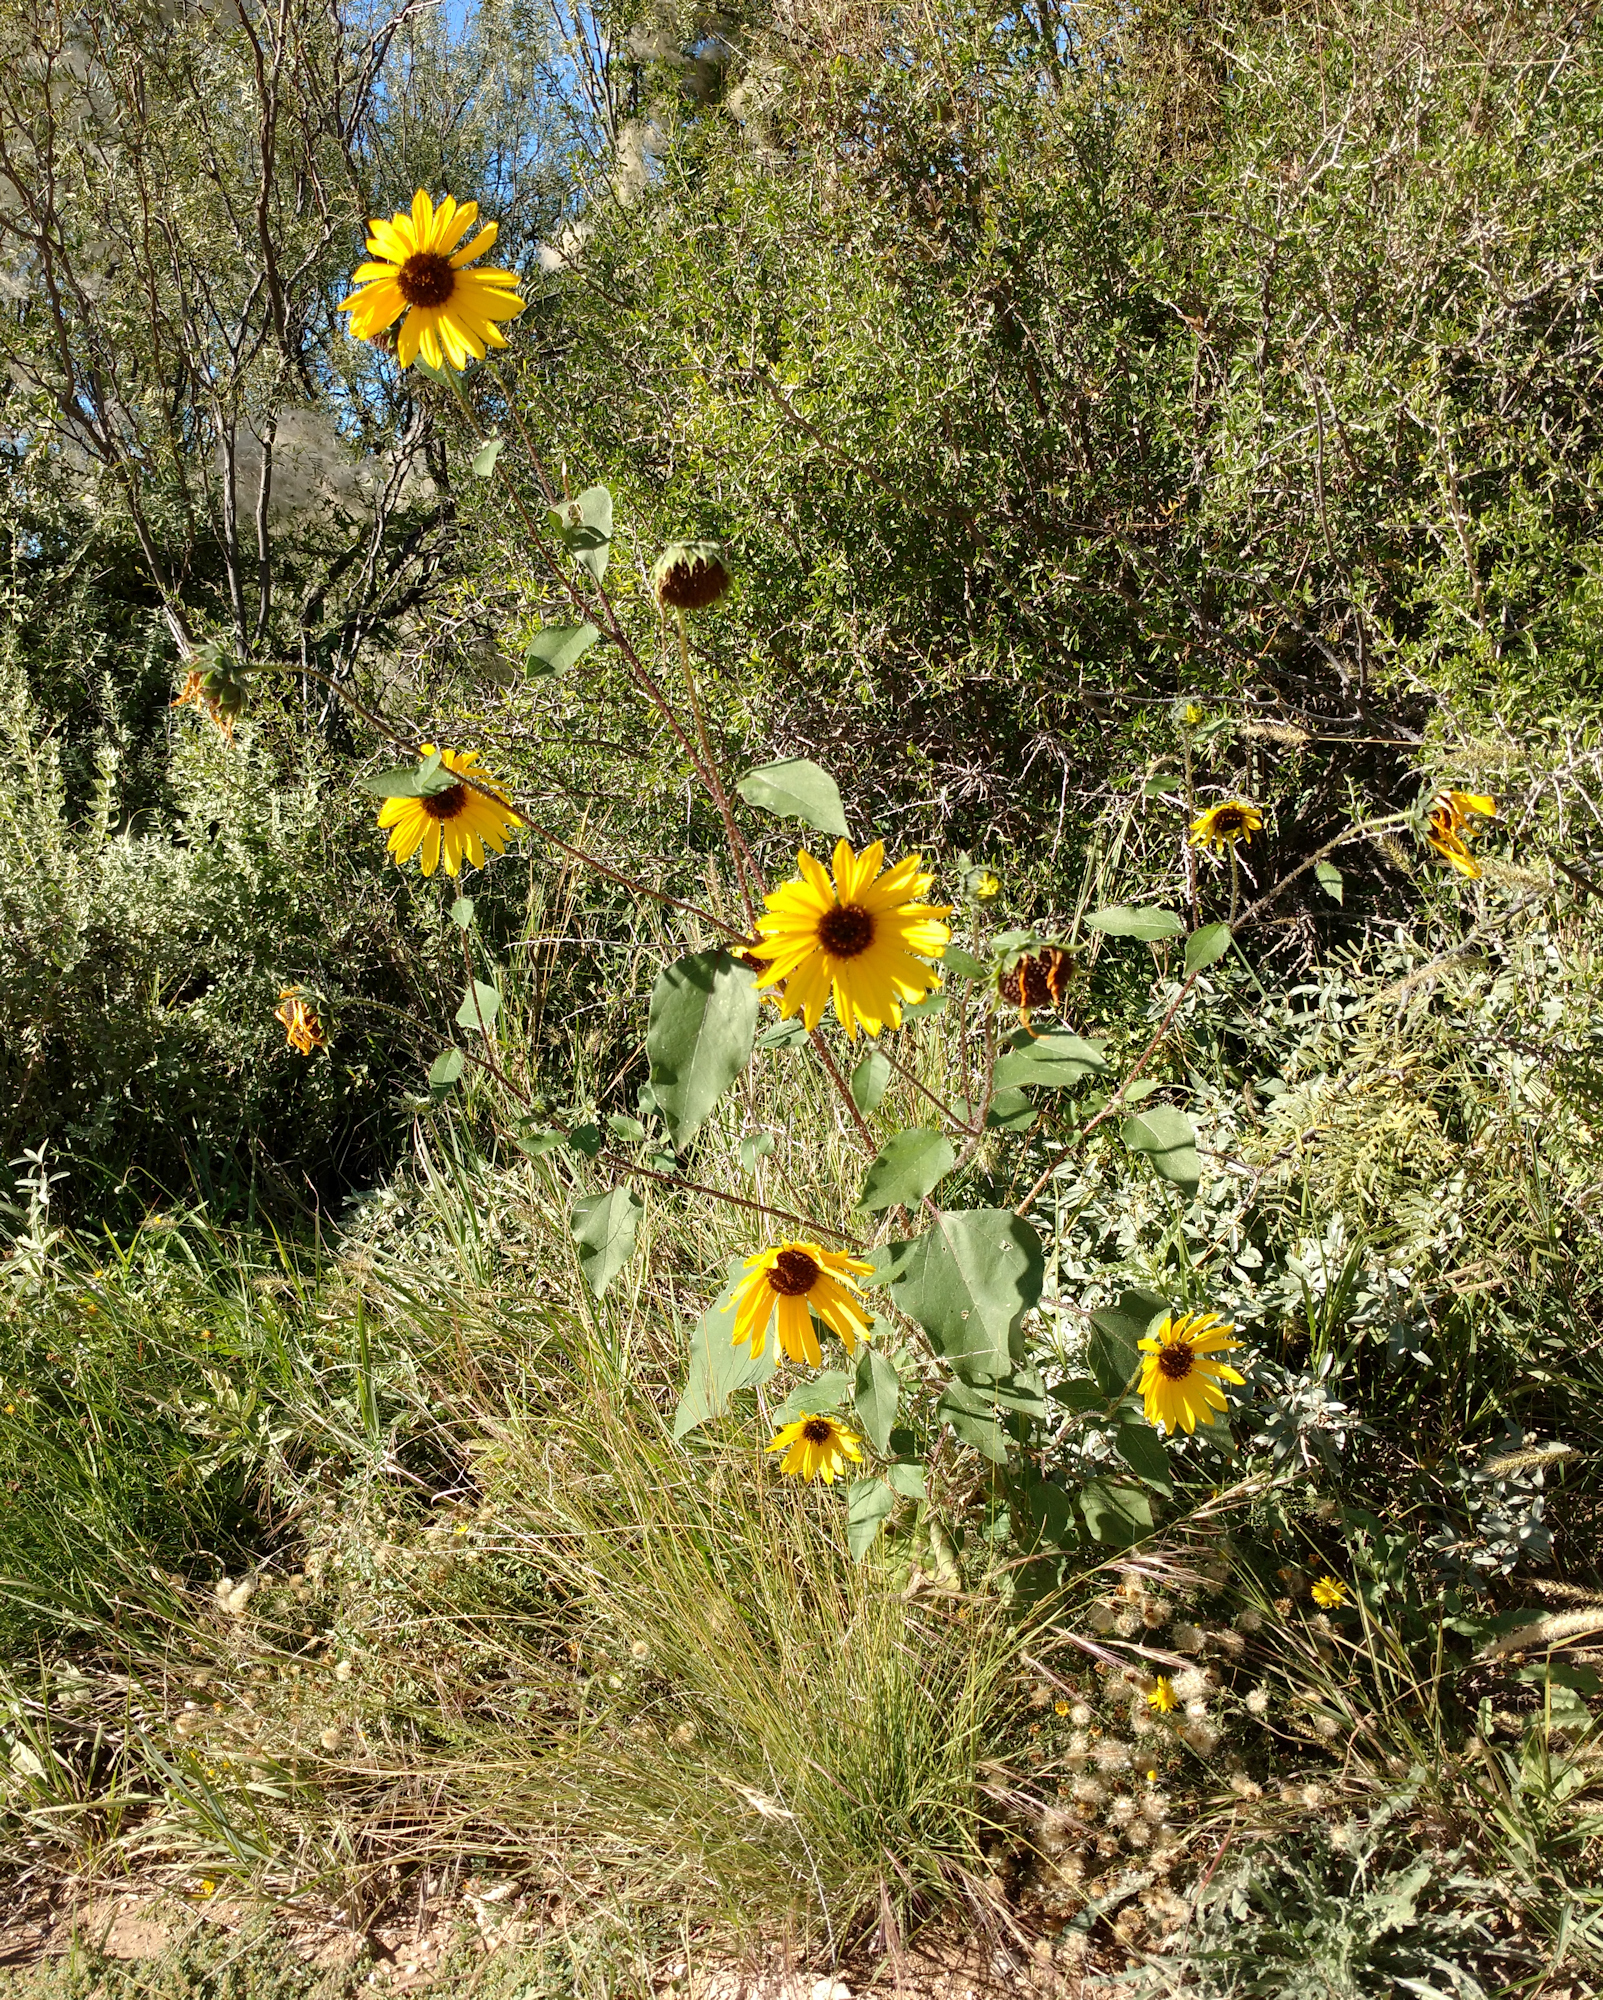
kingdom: Plantae
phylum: Tracheophyta
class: Magnoliopsida
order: Asterales
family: Asteraceae
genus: Helianthus
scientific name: Helianthus annuus
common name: Sunflower
